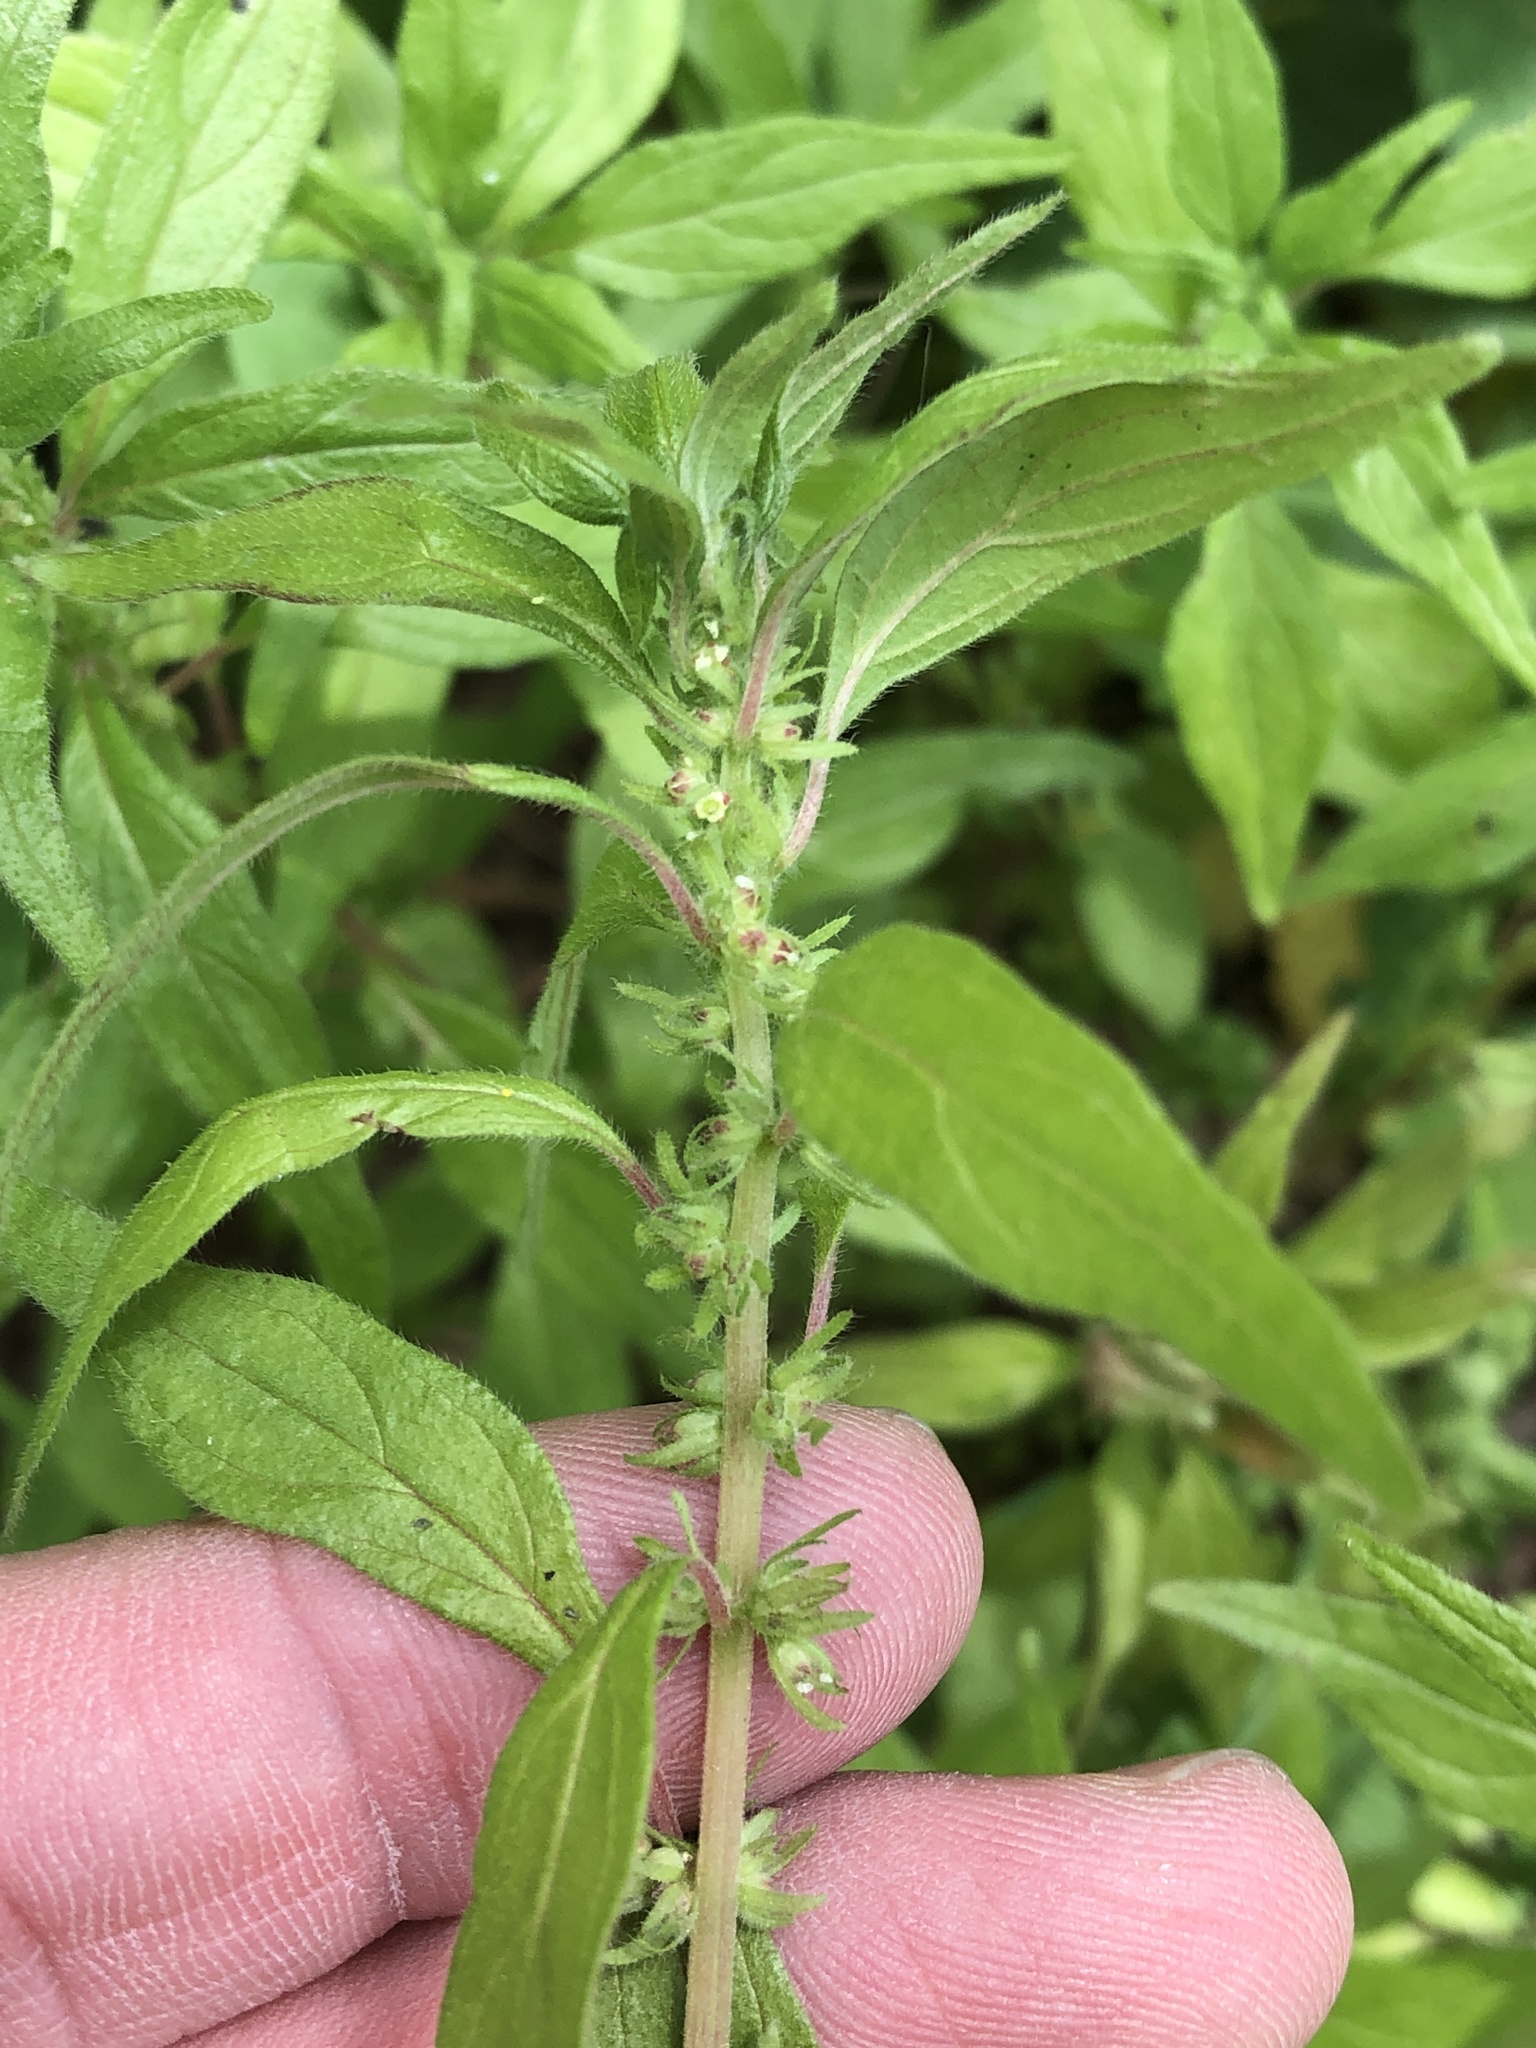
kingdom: Plantae
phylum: Tracheophyta
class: Magnoliopsida
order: Rosales
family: Urticaceae
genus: Parietaria
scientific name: Parietaria pensylvanica
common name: Pennsylvania pellitory
